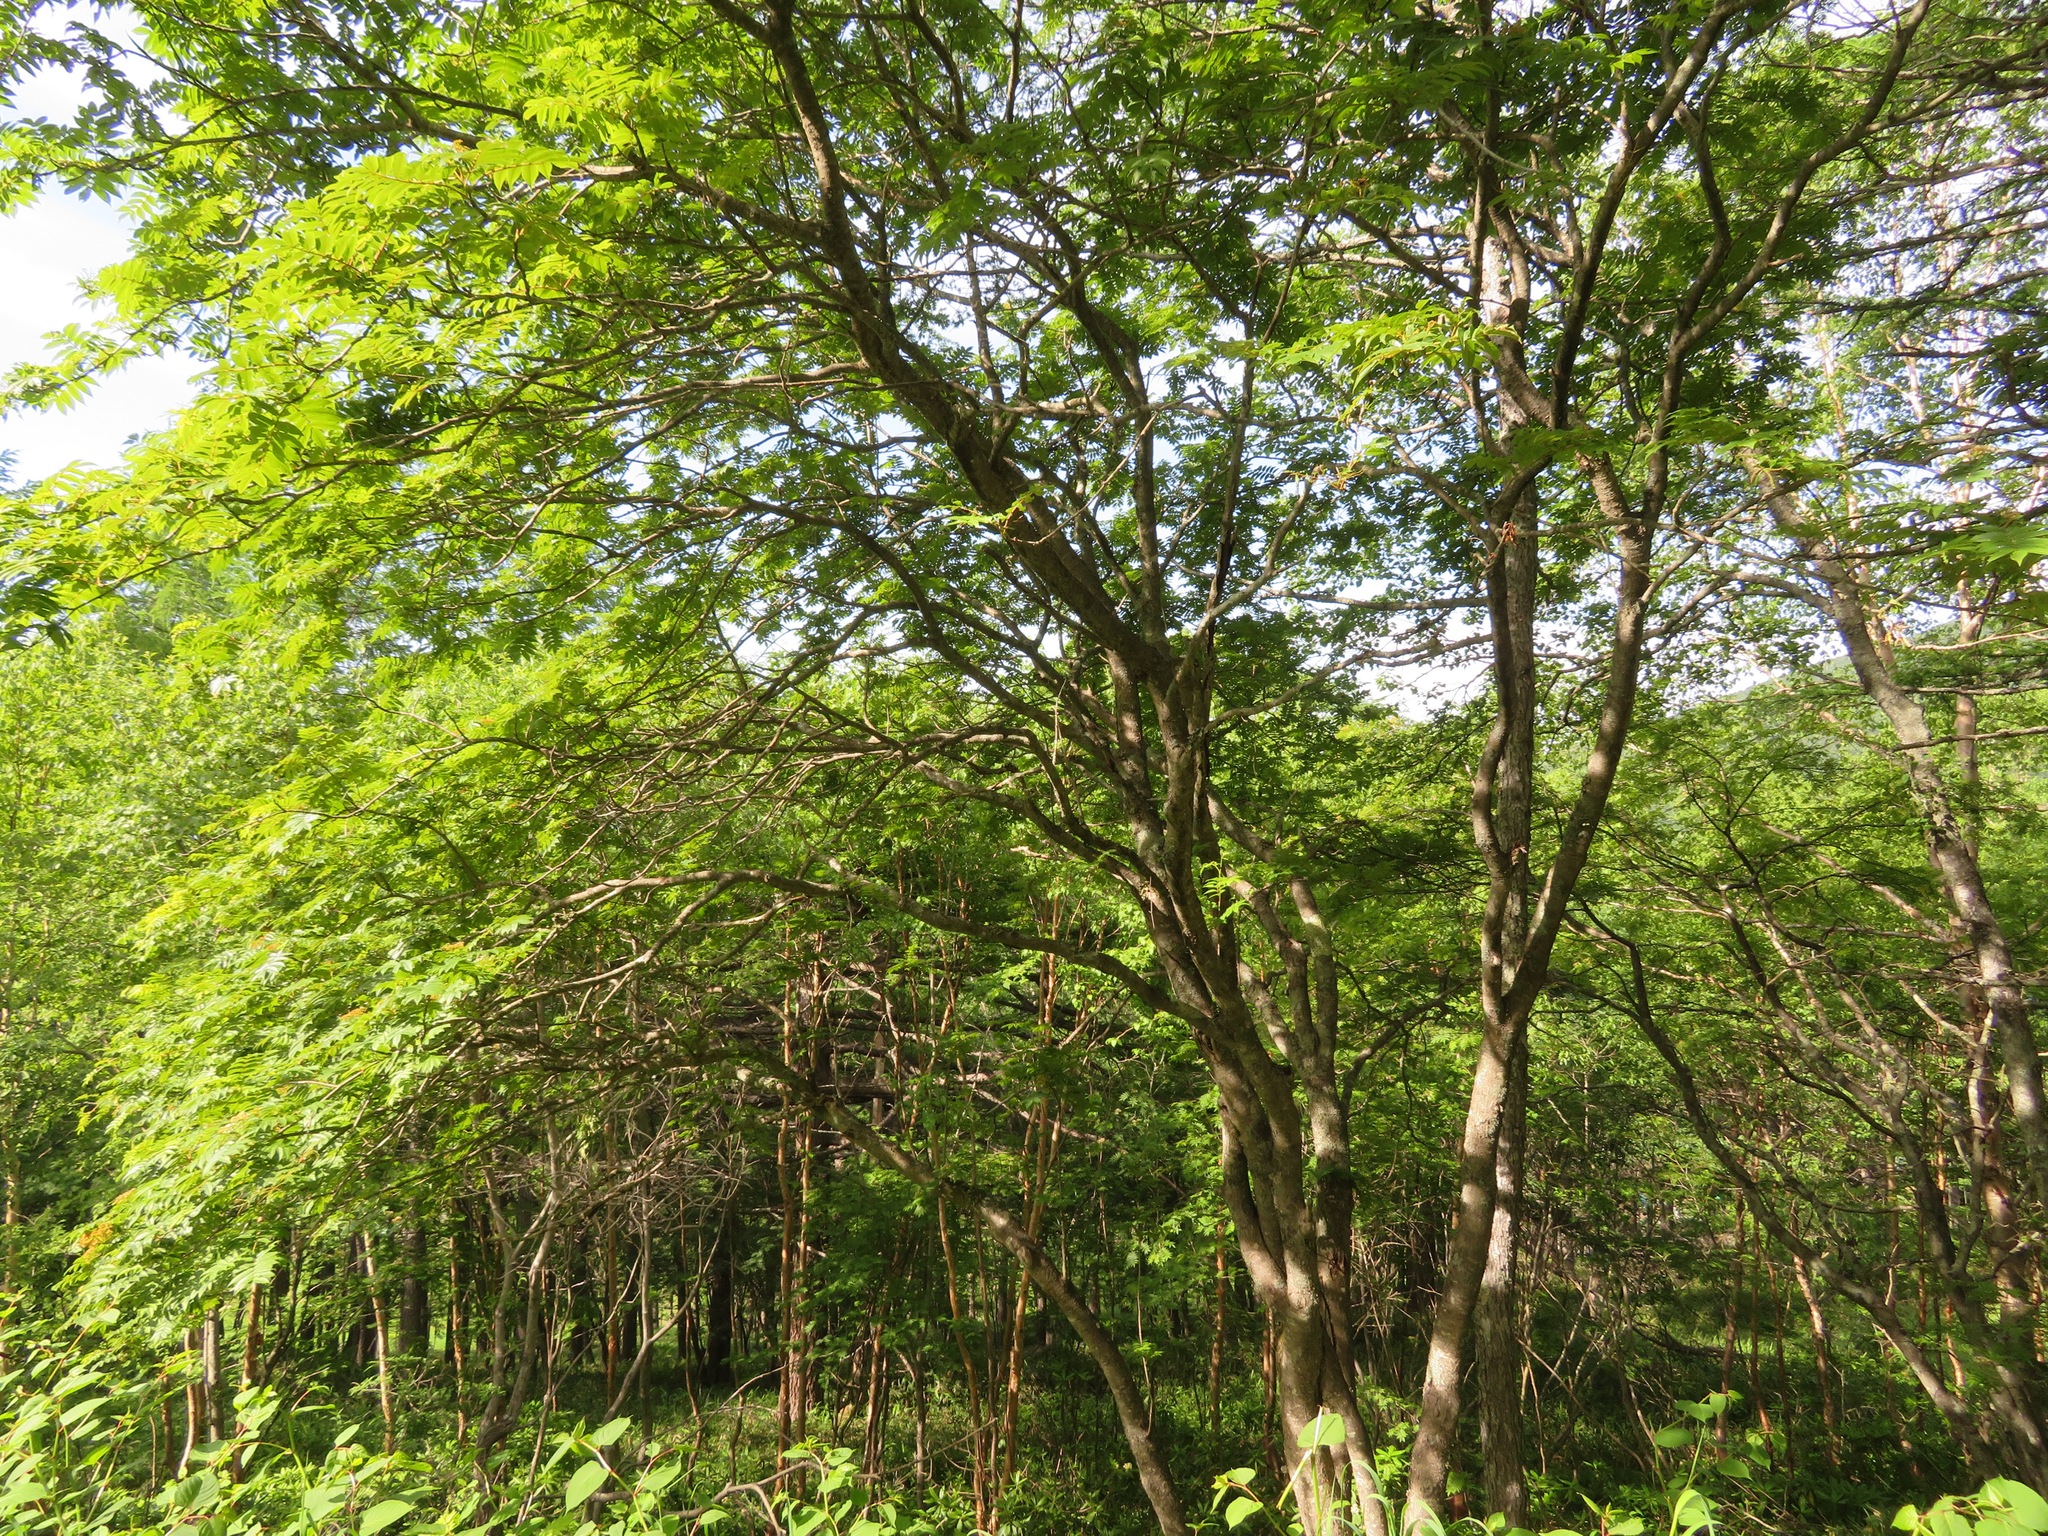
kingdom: Plantae
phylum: Tracheophyta
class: Magnoliopsida
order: Rosales
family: Rosaceae
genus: Sorbus
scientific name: Sorbus commixta
